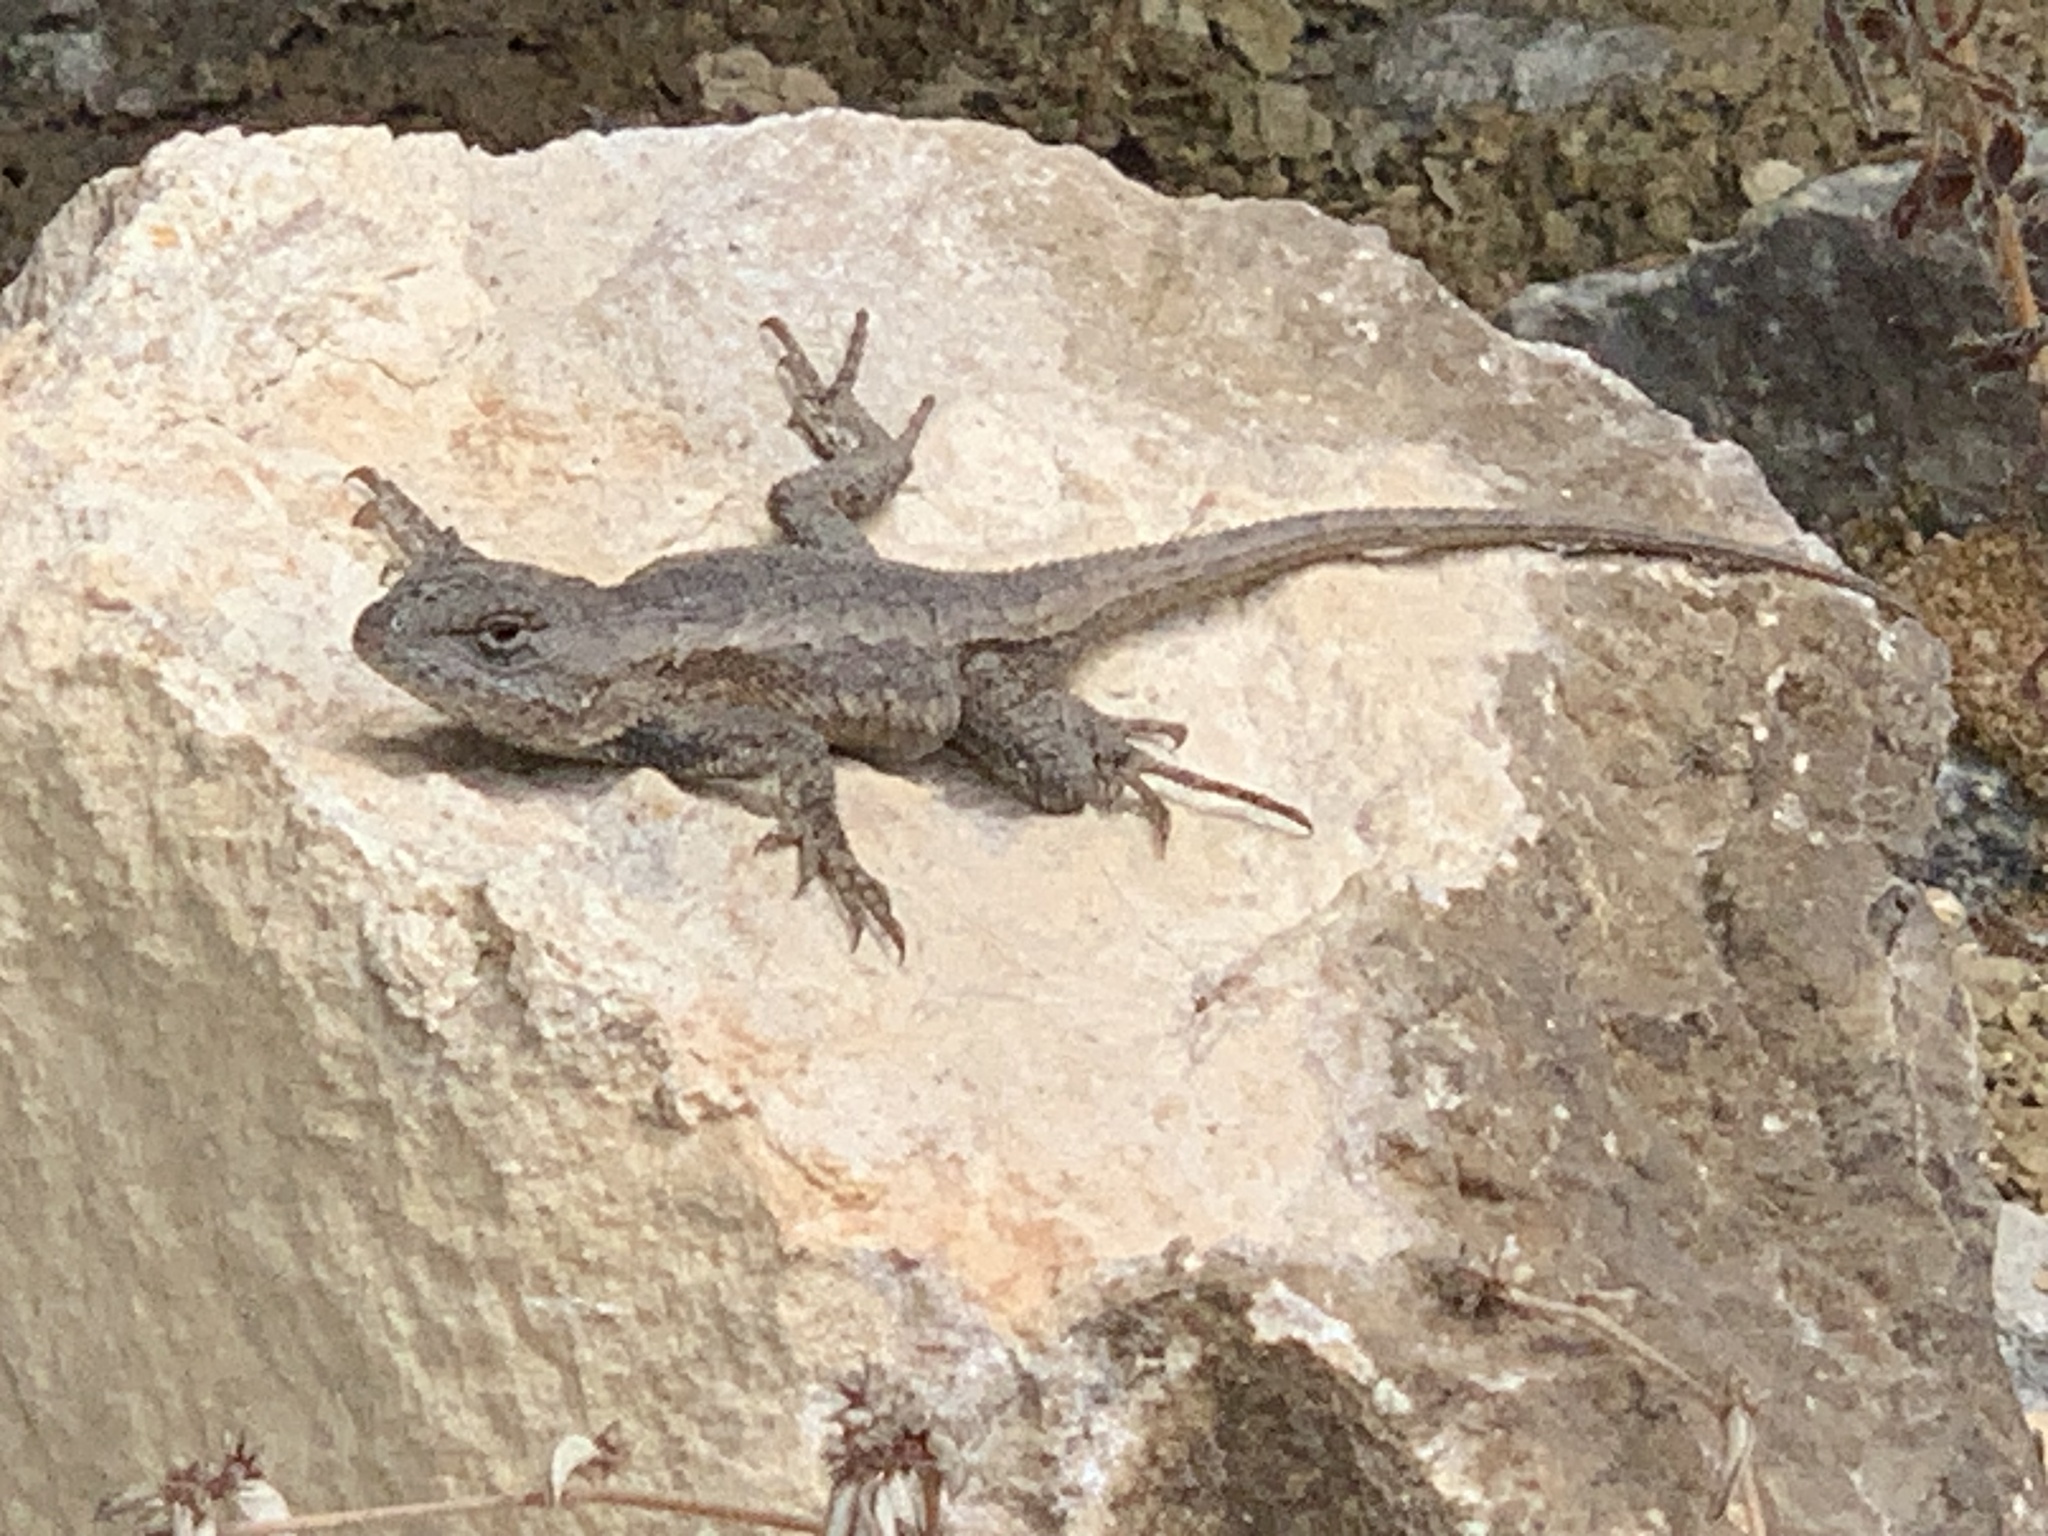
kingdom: Animalia
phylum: Chordata
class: Squamata
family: Phrynosomatidae
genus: Sceloporus
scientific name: Sceloporus consobrinus
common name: Southern prairie lizard
